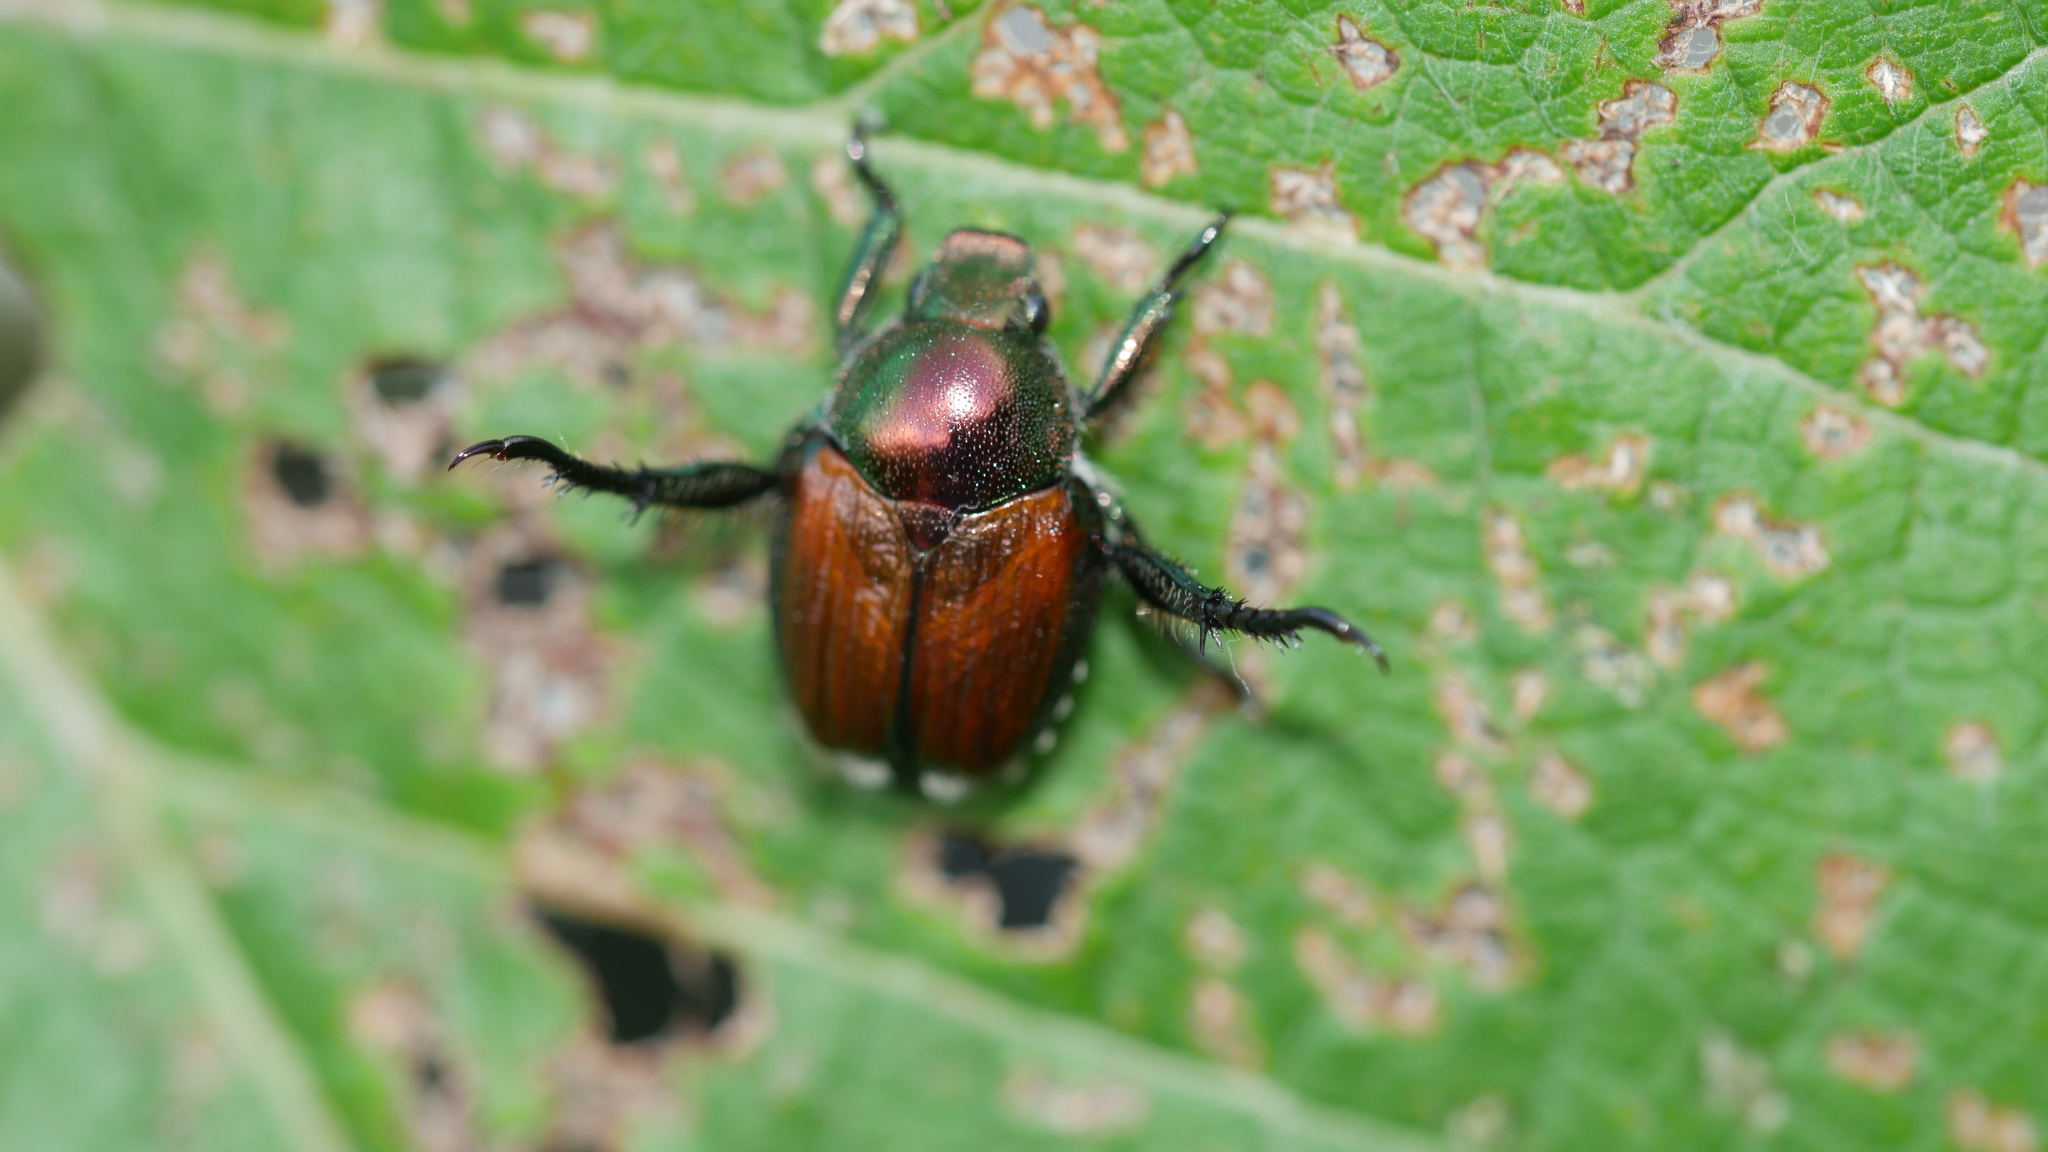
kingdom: Animalia
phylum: Arthropoda
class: Insecta
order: Coleoptera
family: Scarabaeidae
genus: Popillia
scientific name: Popillia japonica
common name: Japanese beetle
